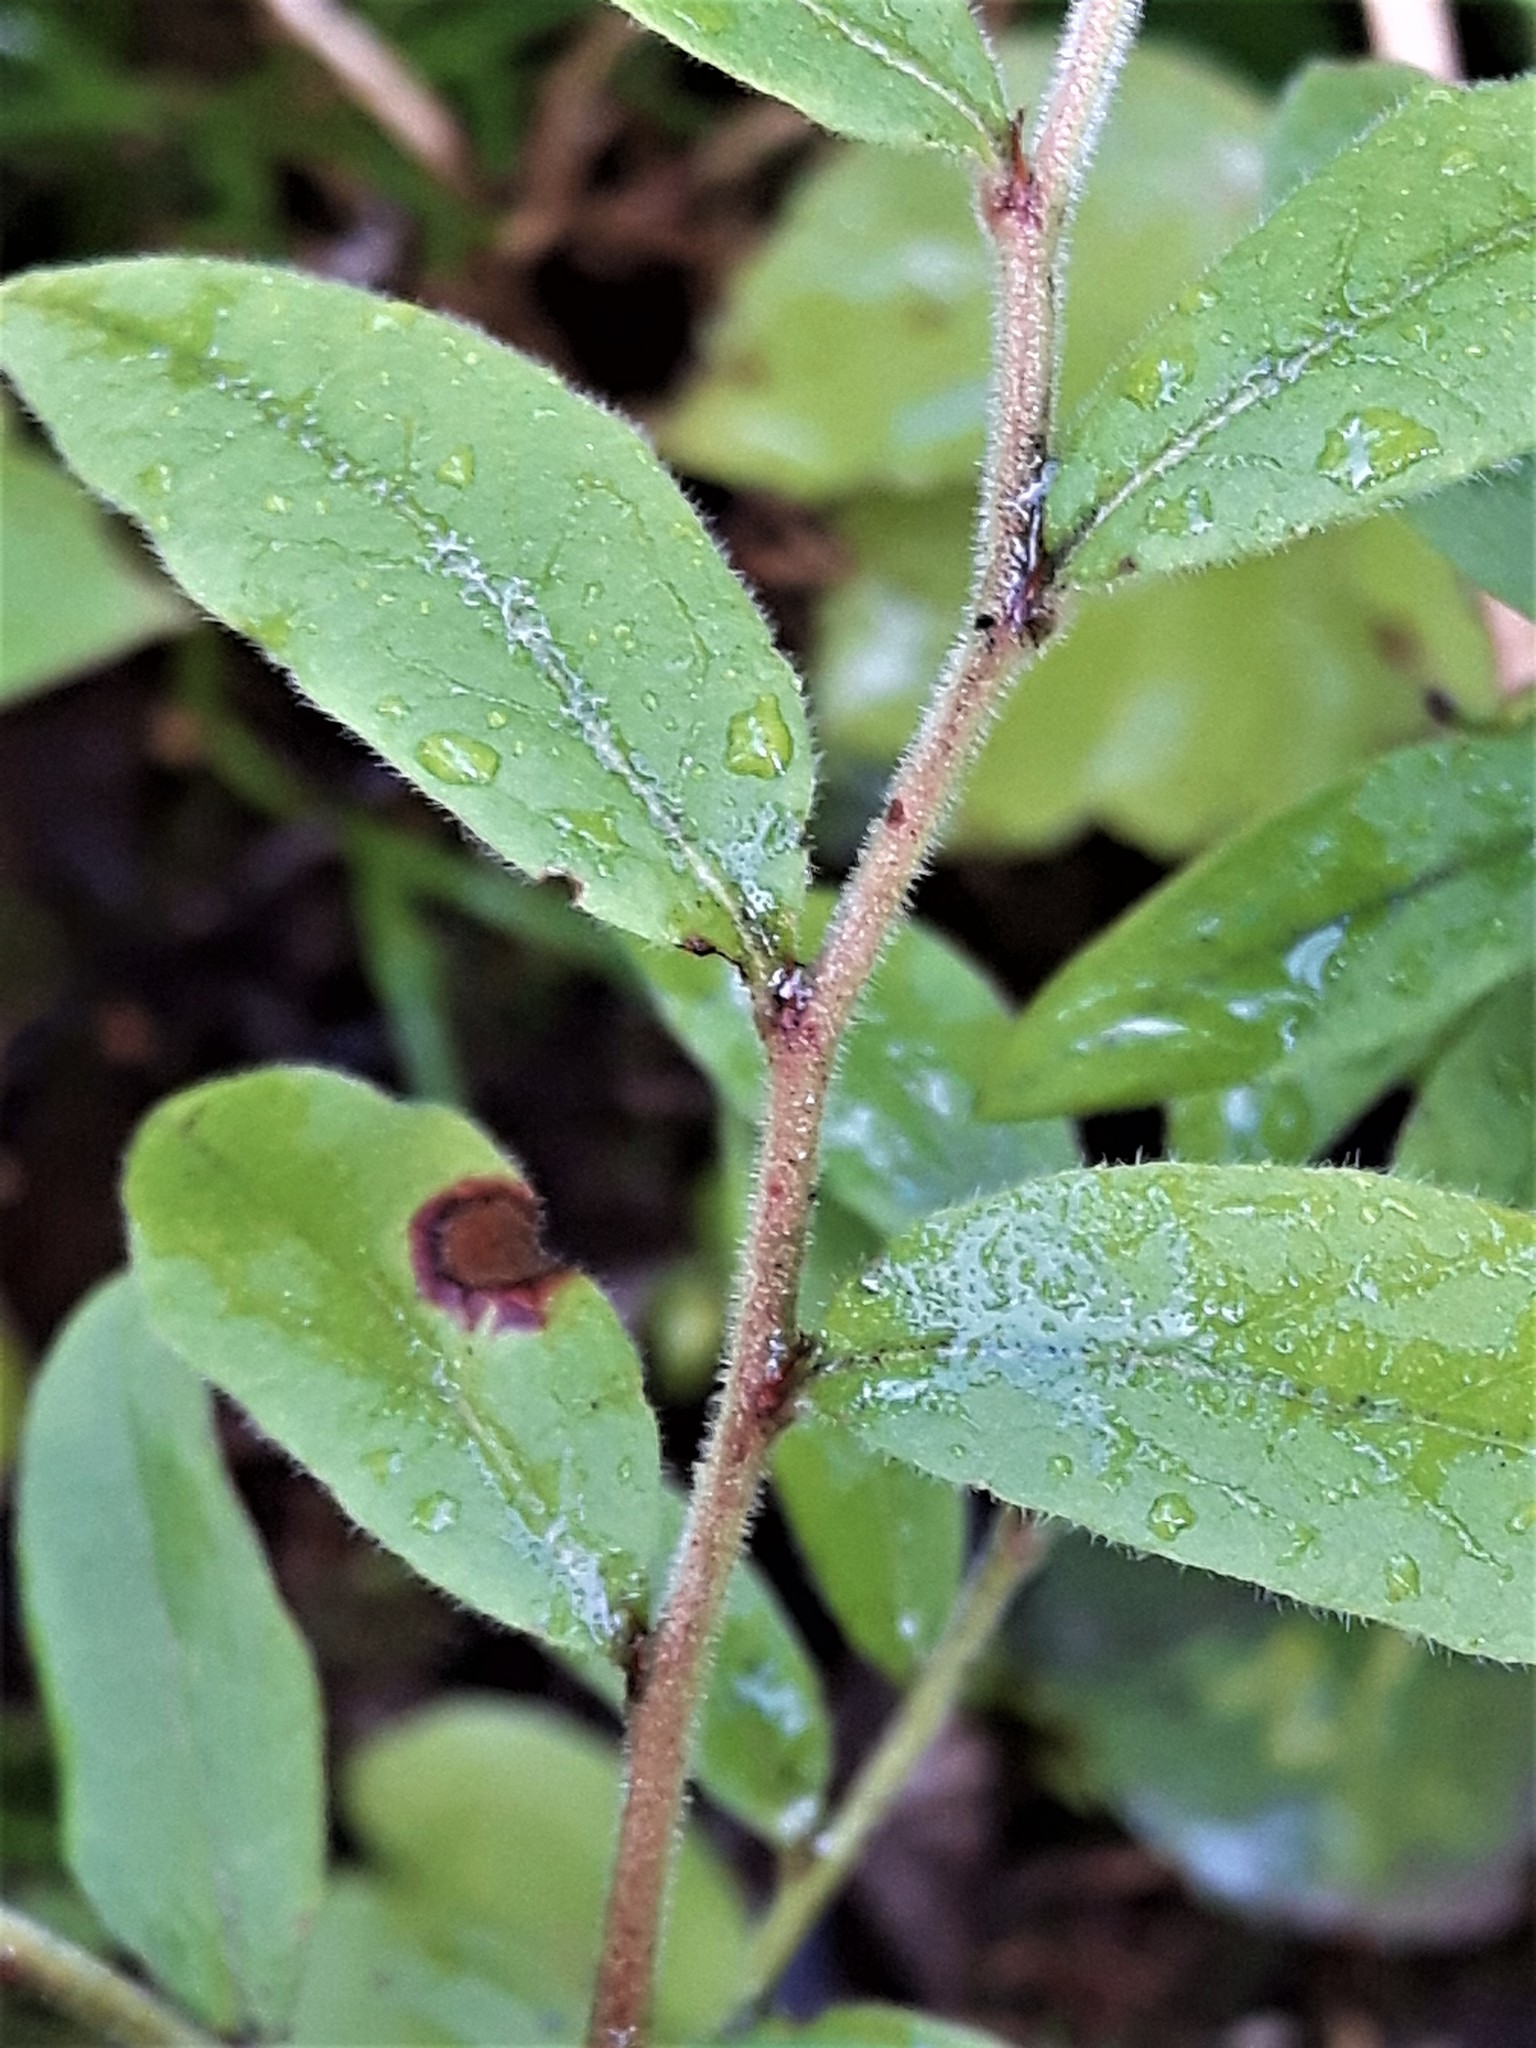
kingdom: Plantae
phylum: Tracheophyta
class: Magnoliopsida
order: Ericales
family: Ericaceae
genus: Vaccinium
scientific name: Vaccinium myrtilloides
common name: Canada blueberry
